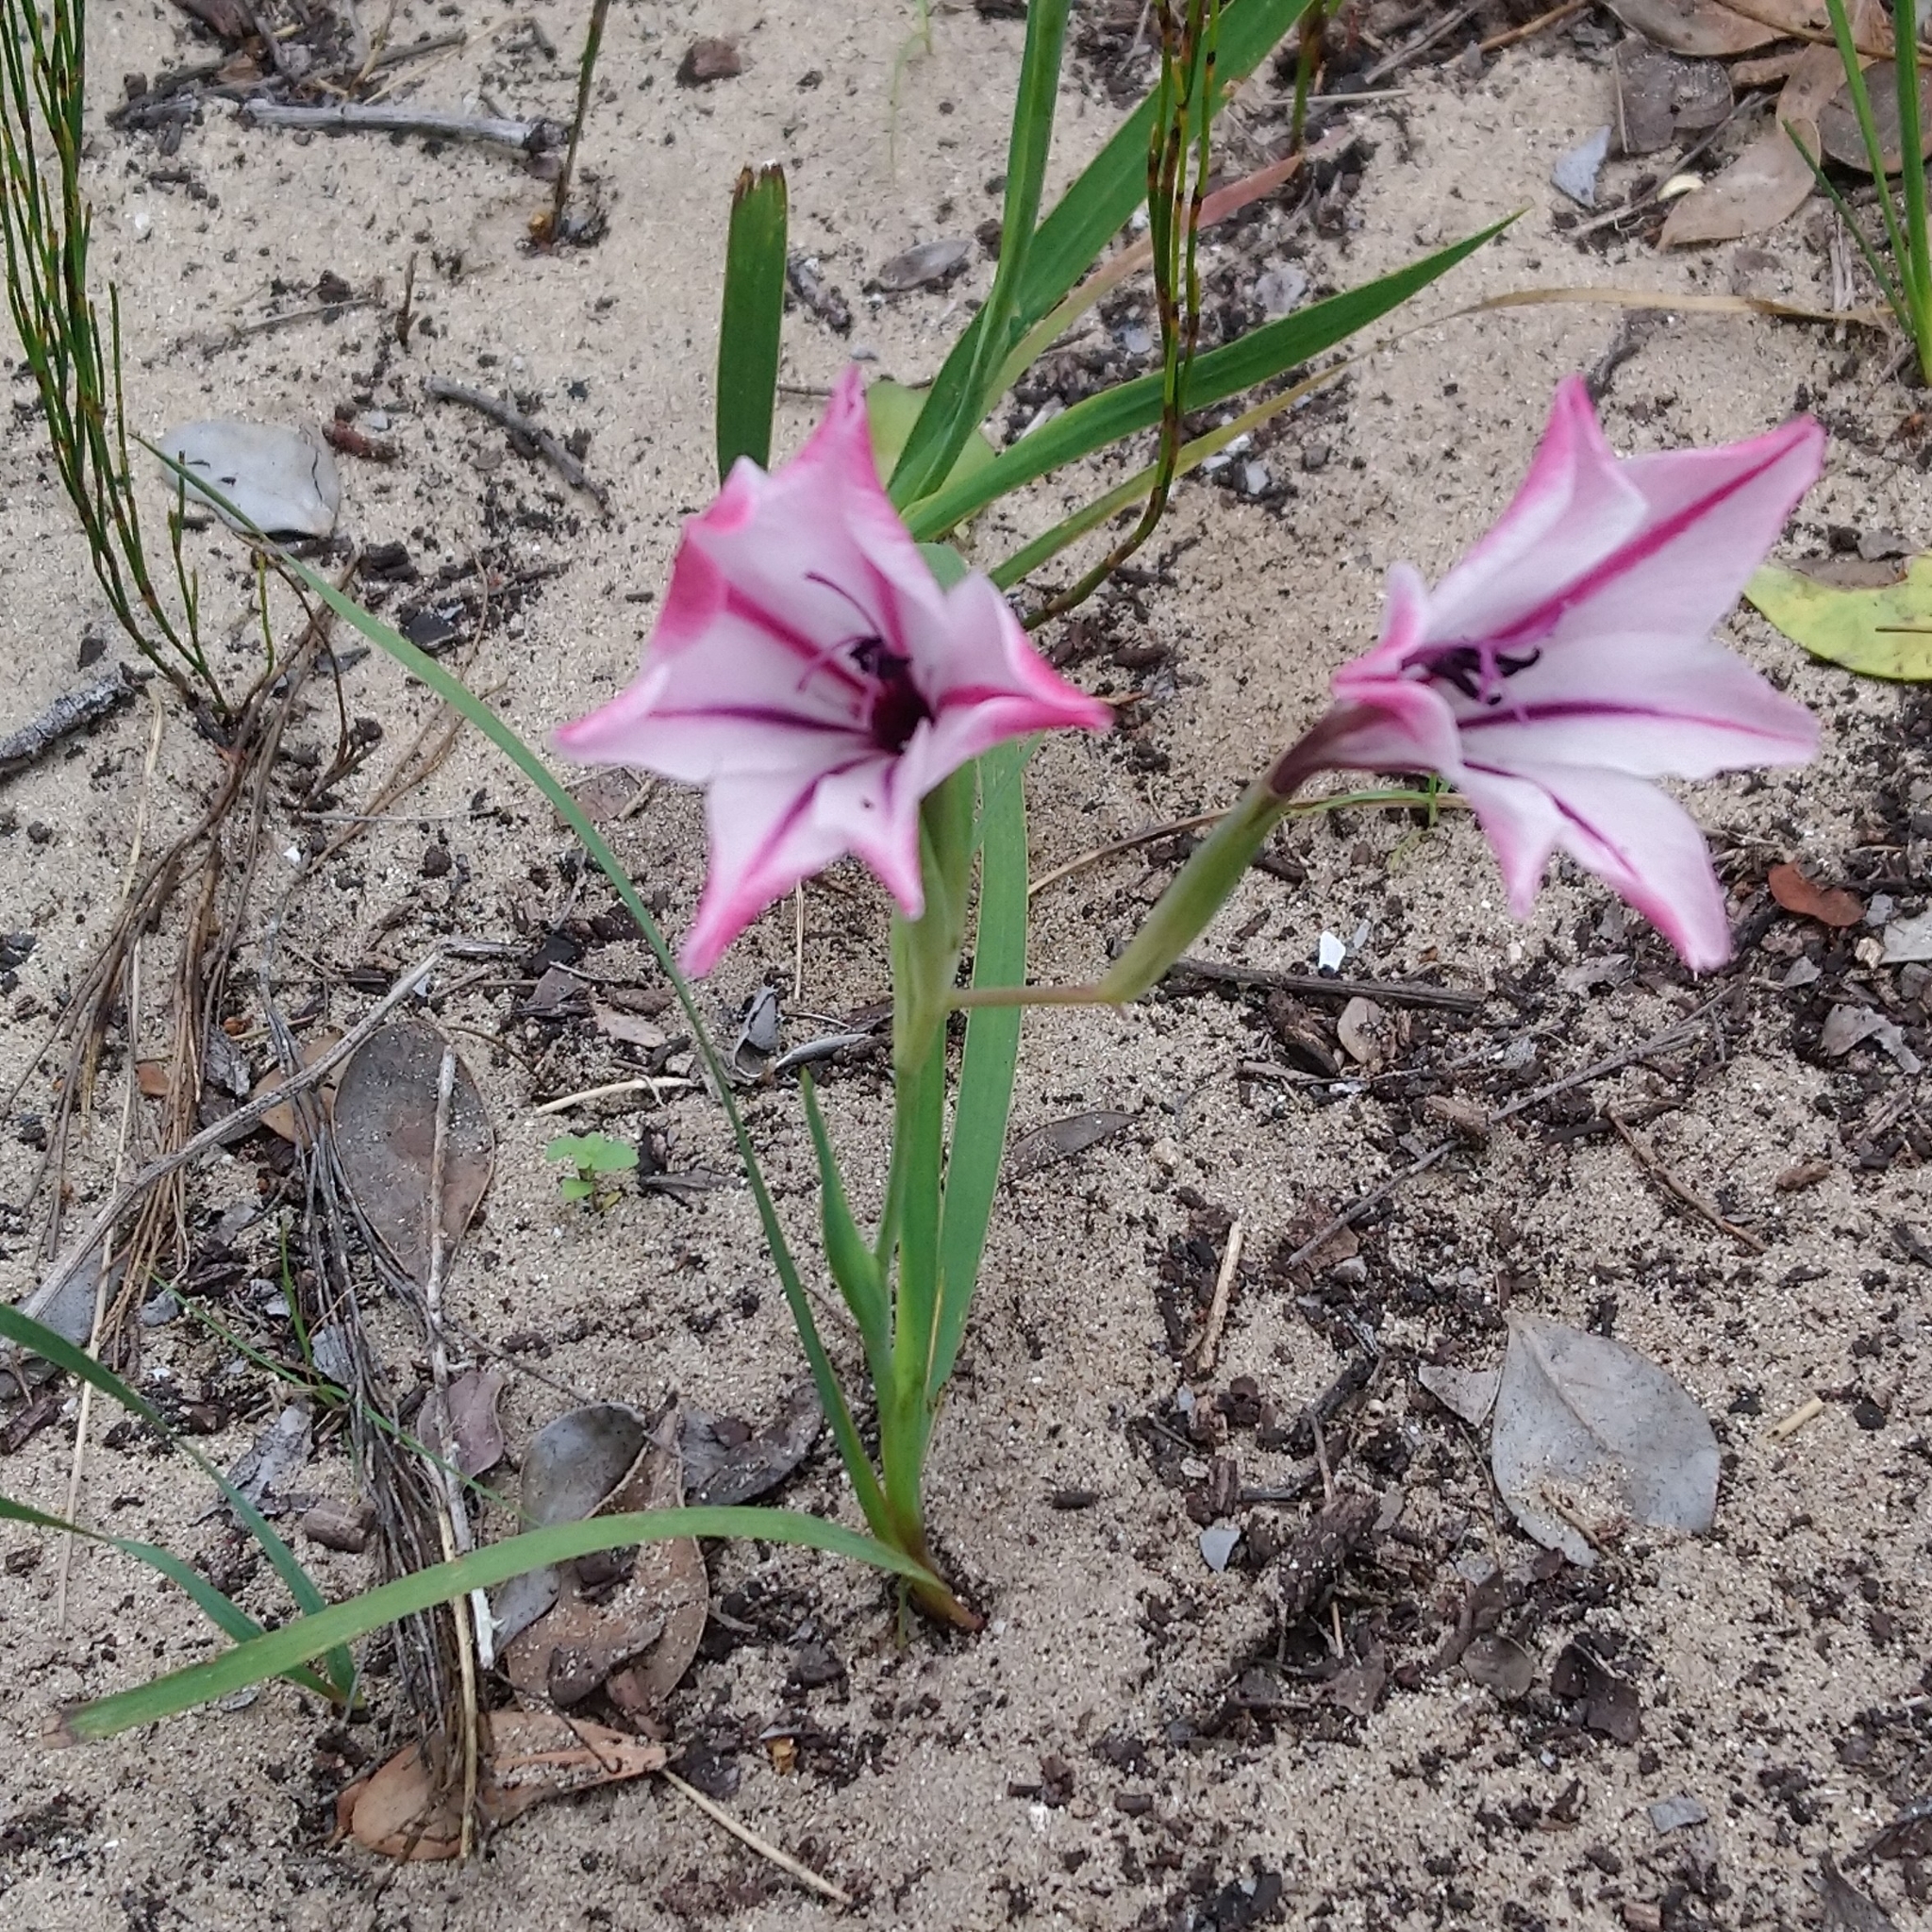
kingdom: Plantae
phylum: Tracheophyta
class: Liliopsida
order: Asparagales
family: Iridaceae
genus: Gladiolus
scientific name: Gladiolus floribundus
